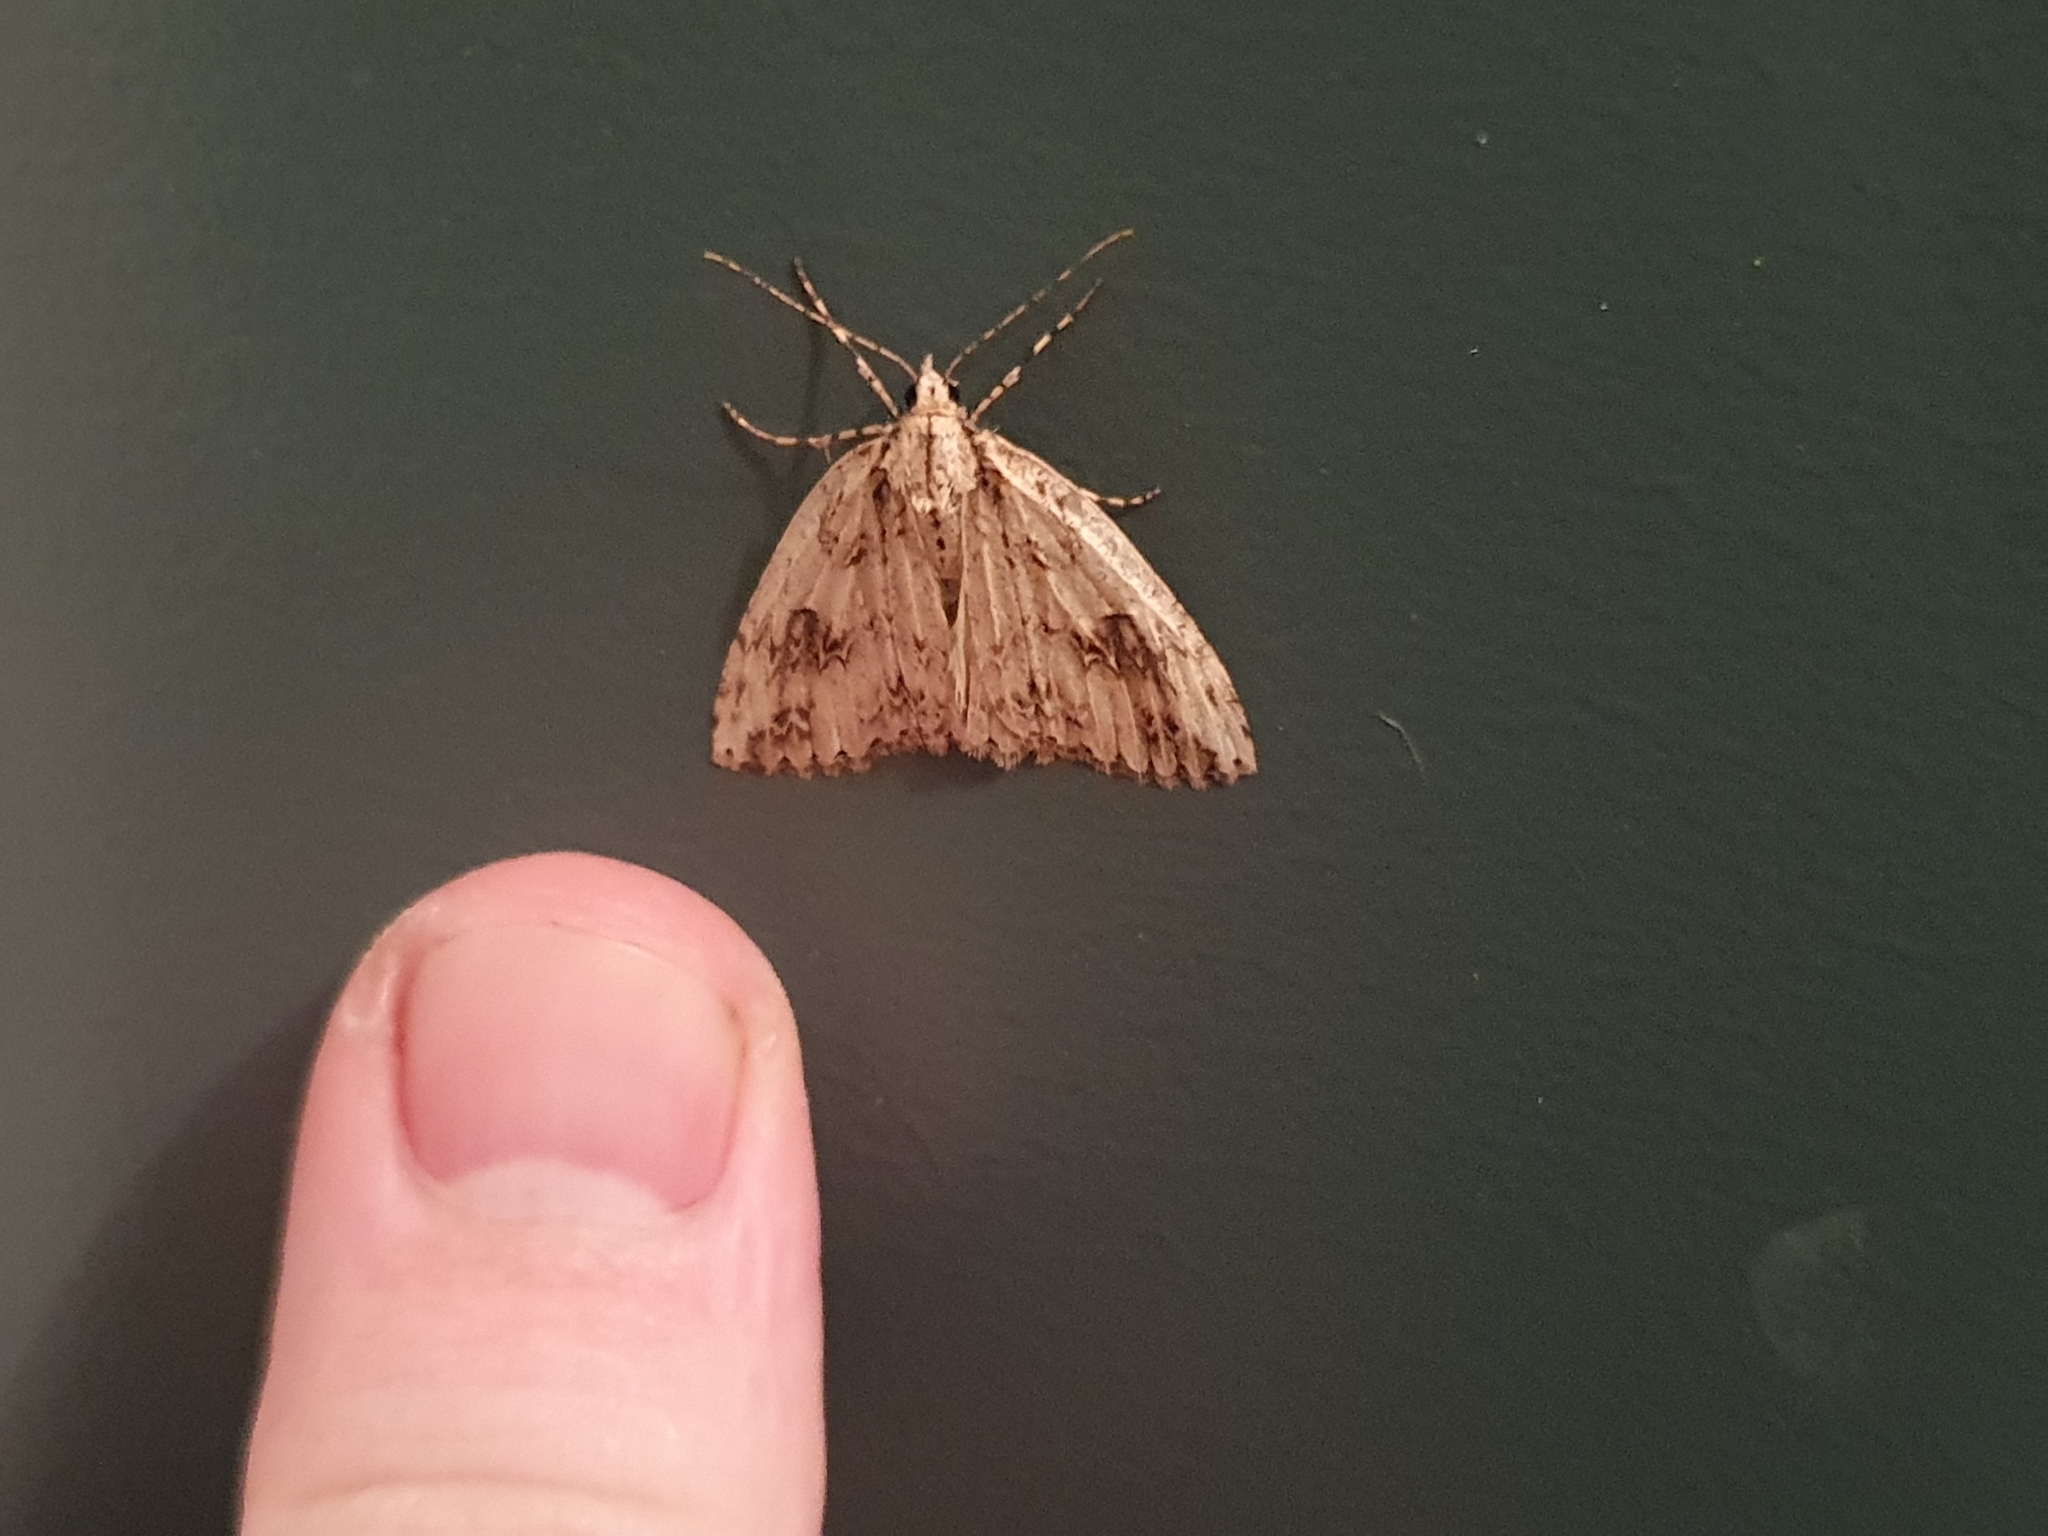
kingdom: Animalia
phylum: Arthropoda
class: Insecta
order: Lepidoptera
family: Geometridae
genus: Pseudocoremia
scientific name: Pseudocoremia rudisata
